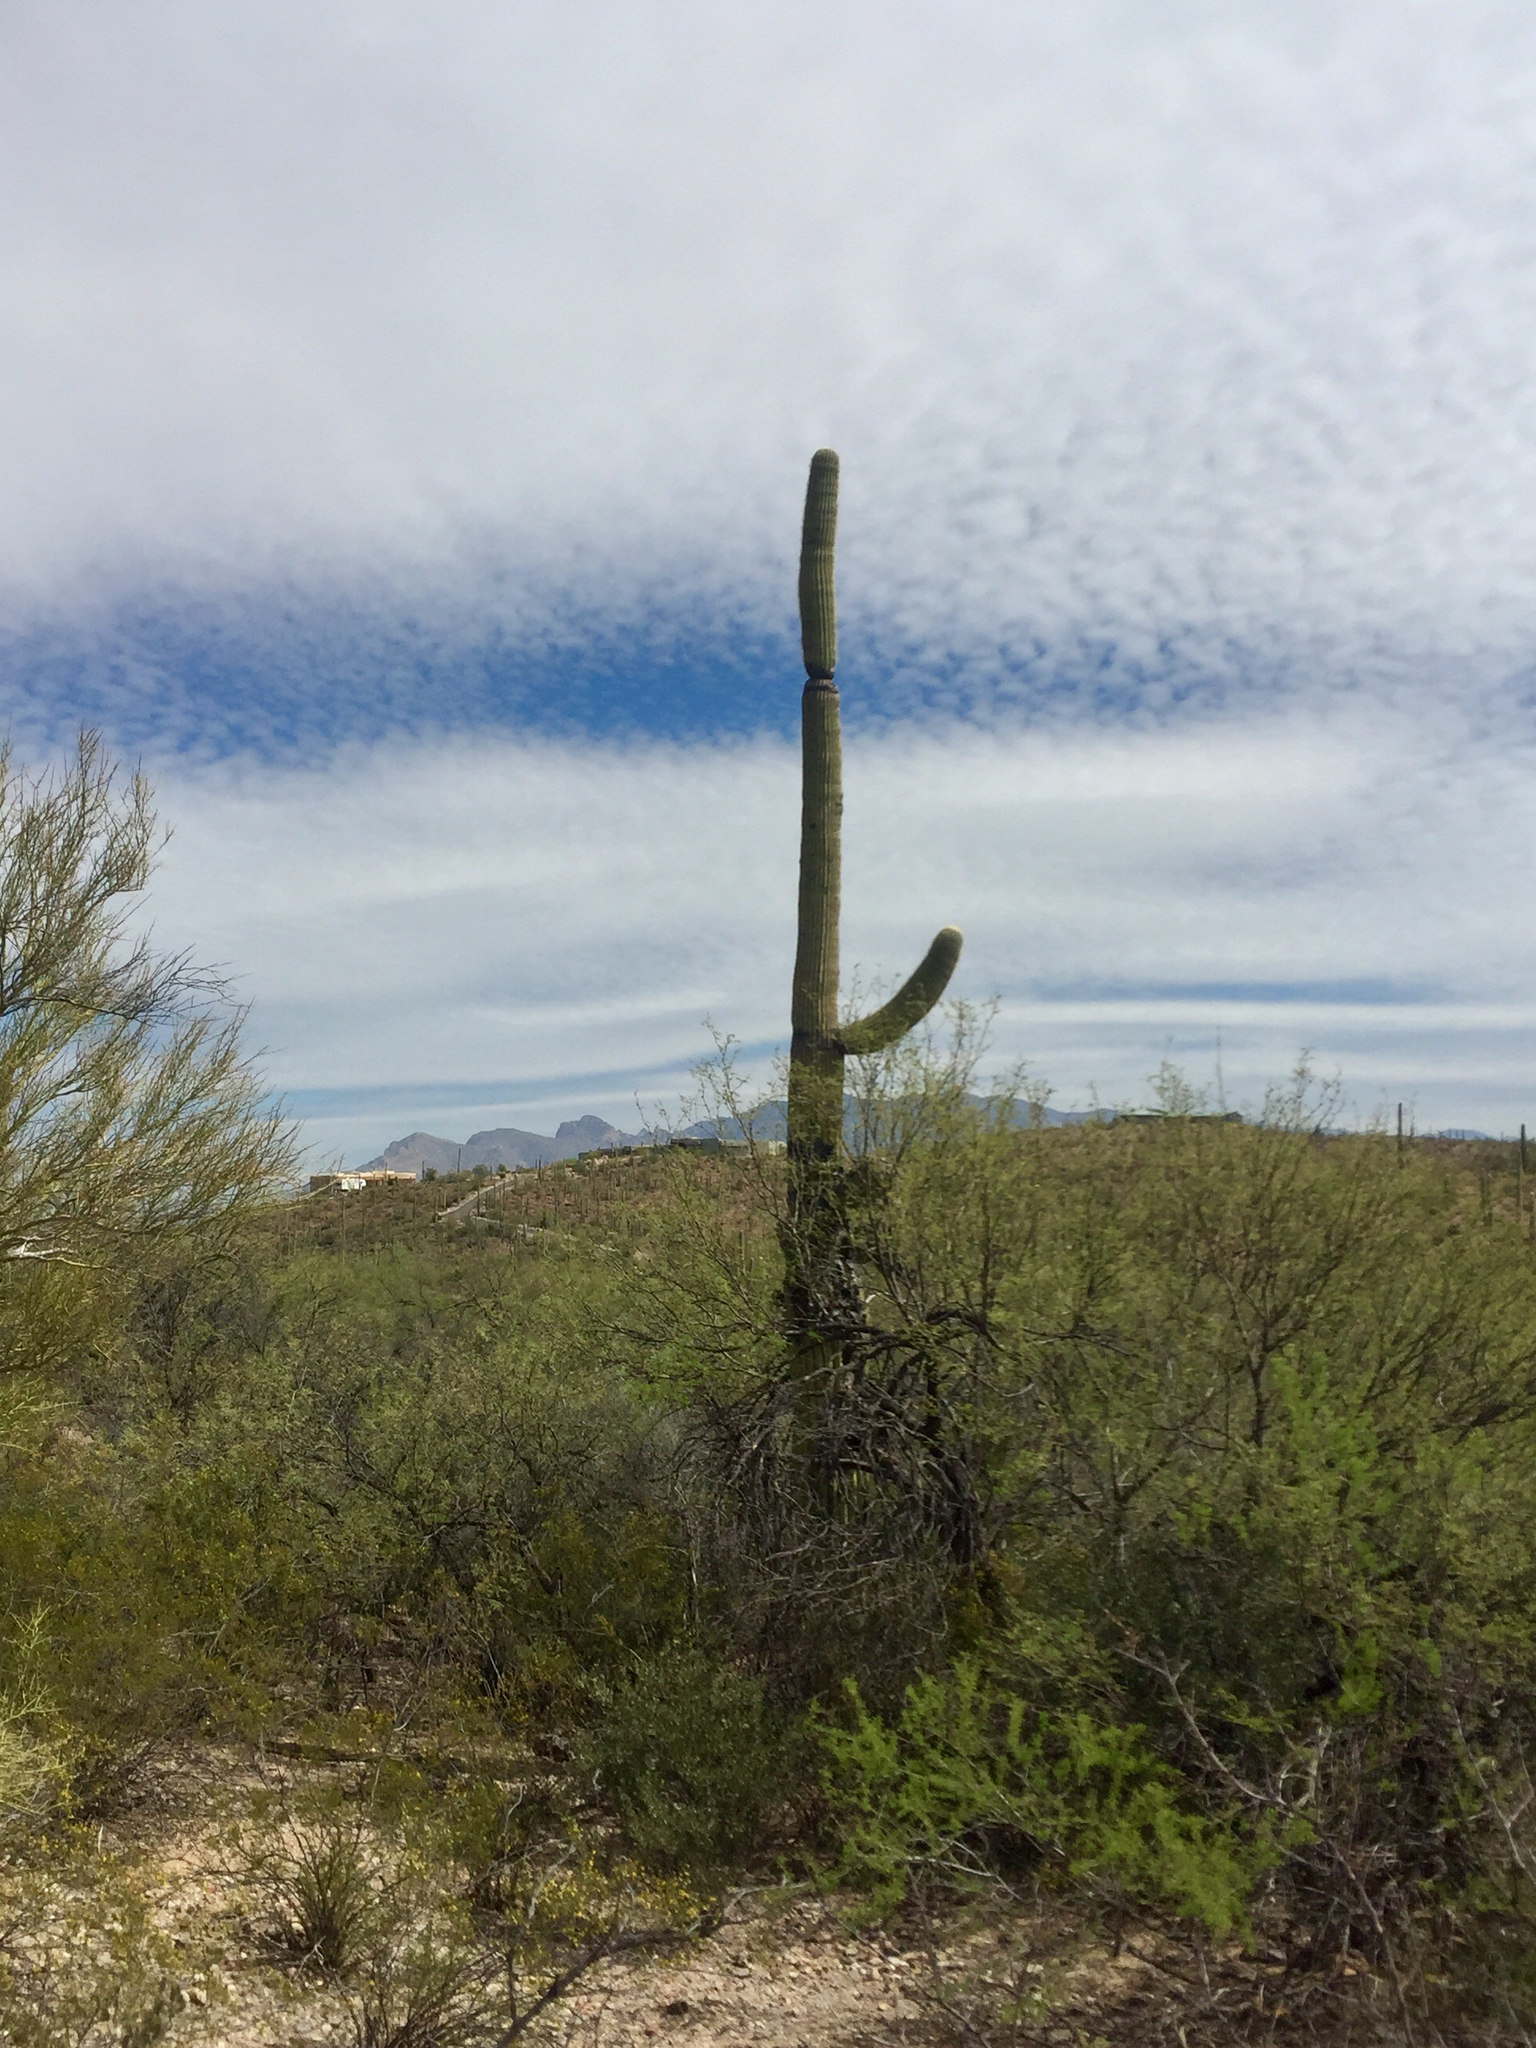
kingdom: Plantae
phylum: Tracheophyta
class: Magnoliopsida
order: Caryophyllales
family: Cactaceae
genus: Carnegiea
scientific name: Carnegiea gigantea
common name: Saguaro
